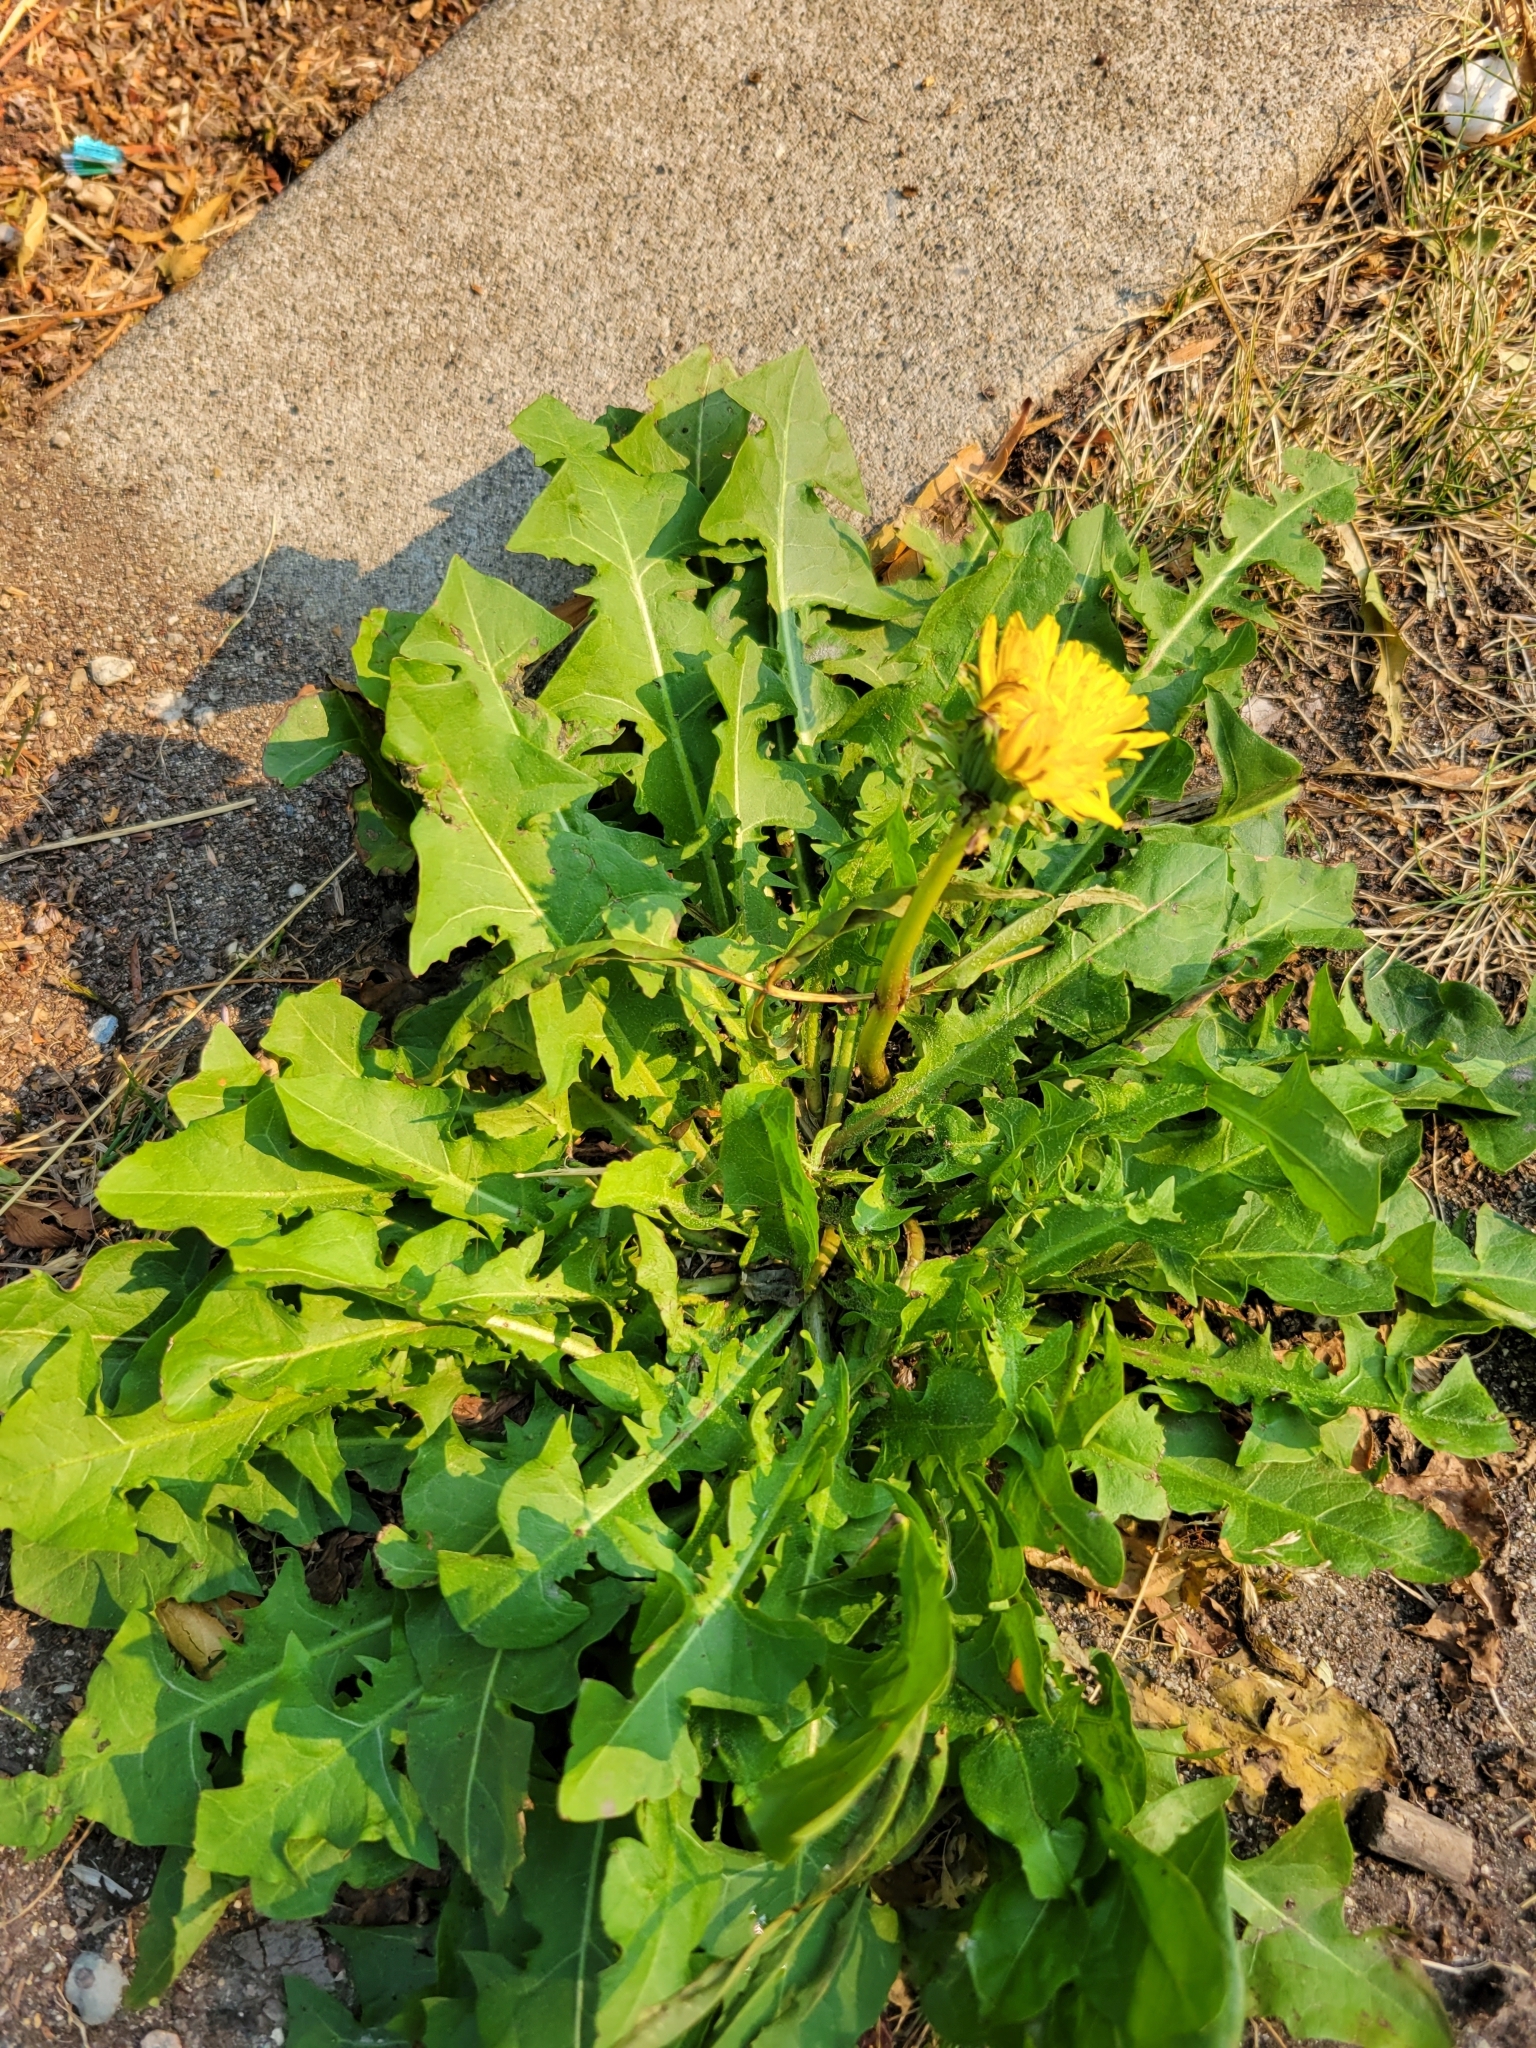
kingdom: Plantae
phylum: Tracheophyta
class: Magnoliopsida
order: Asterales
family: Asteraceae
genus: Taraxacum
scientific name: Taraxacum officinale
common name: Common dandelion
